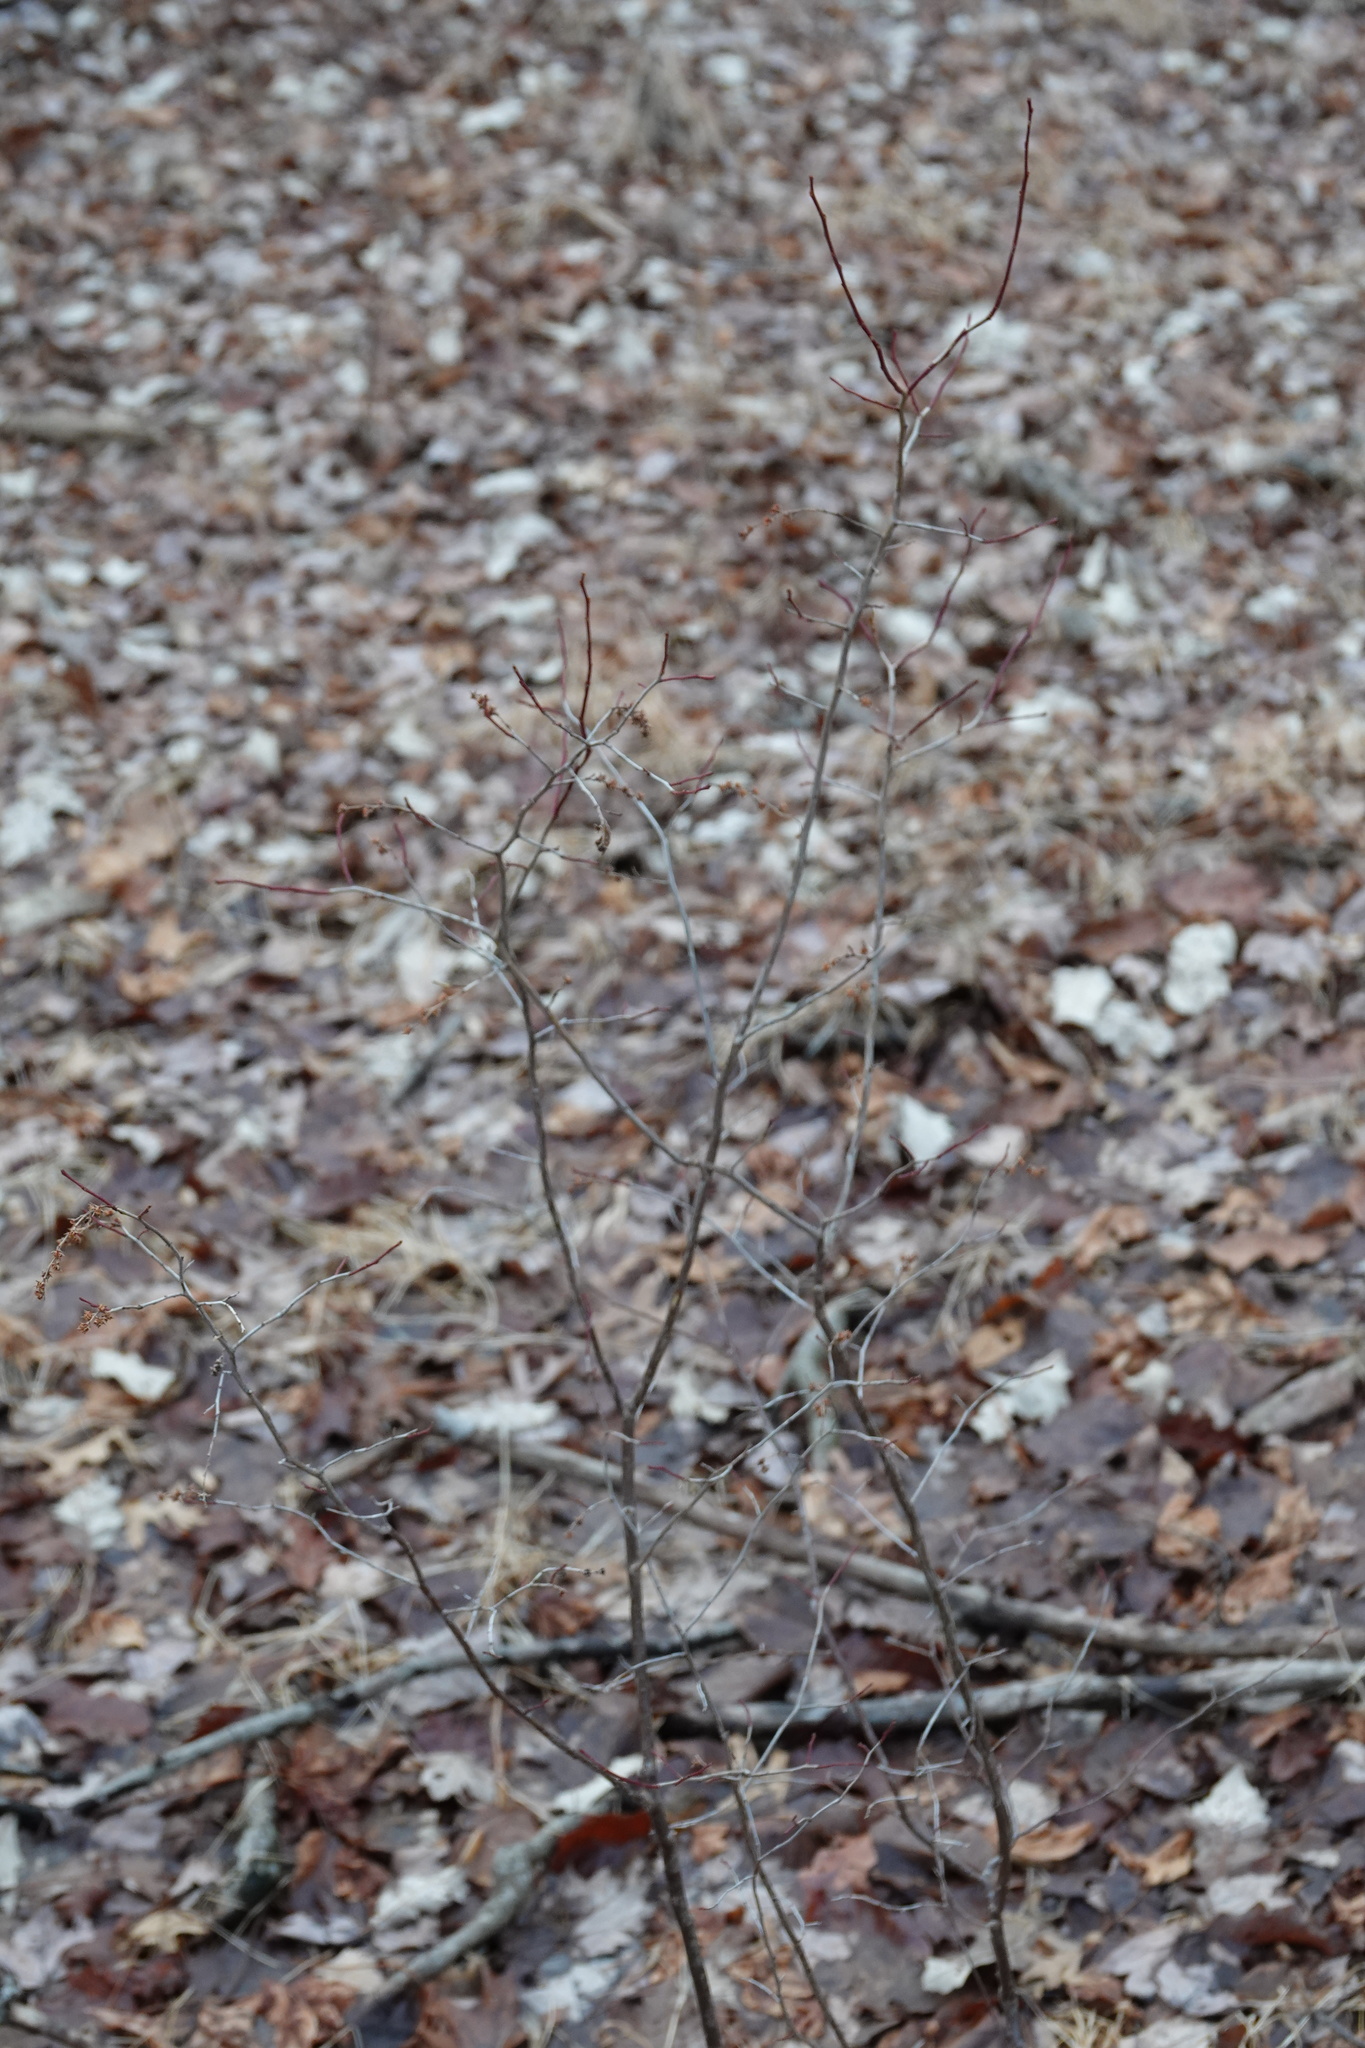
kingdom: Plantae
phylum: Tracheophyta
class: Magnoliopsida
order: Ericales
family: Ericaceae
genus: Eubotrys
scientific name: Eubotrys racemosa
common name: Fetterbush
